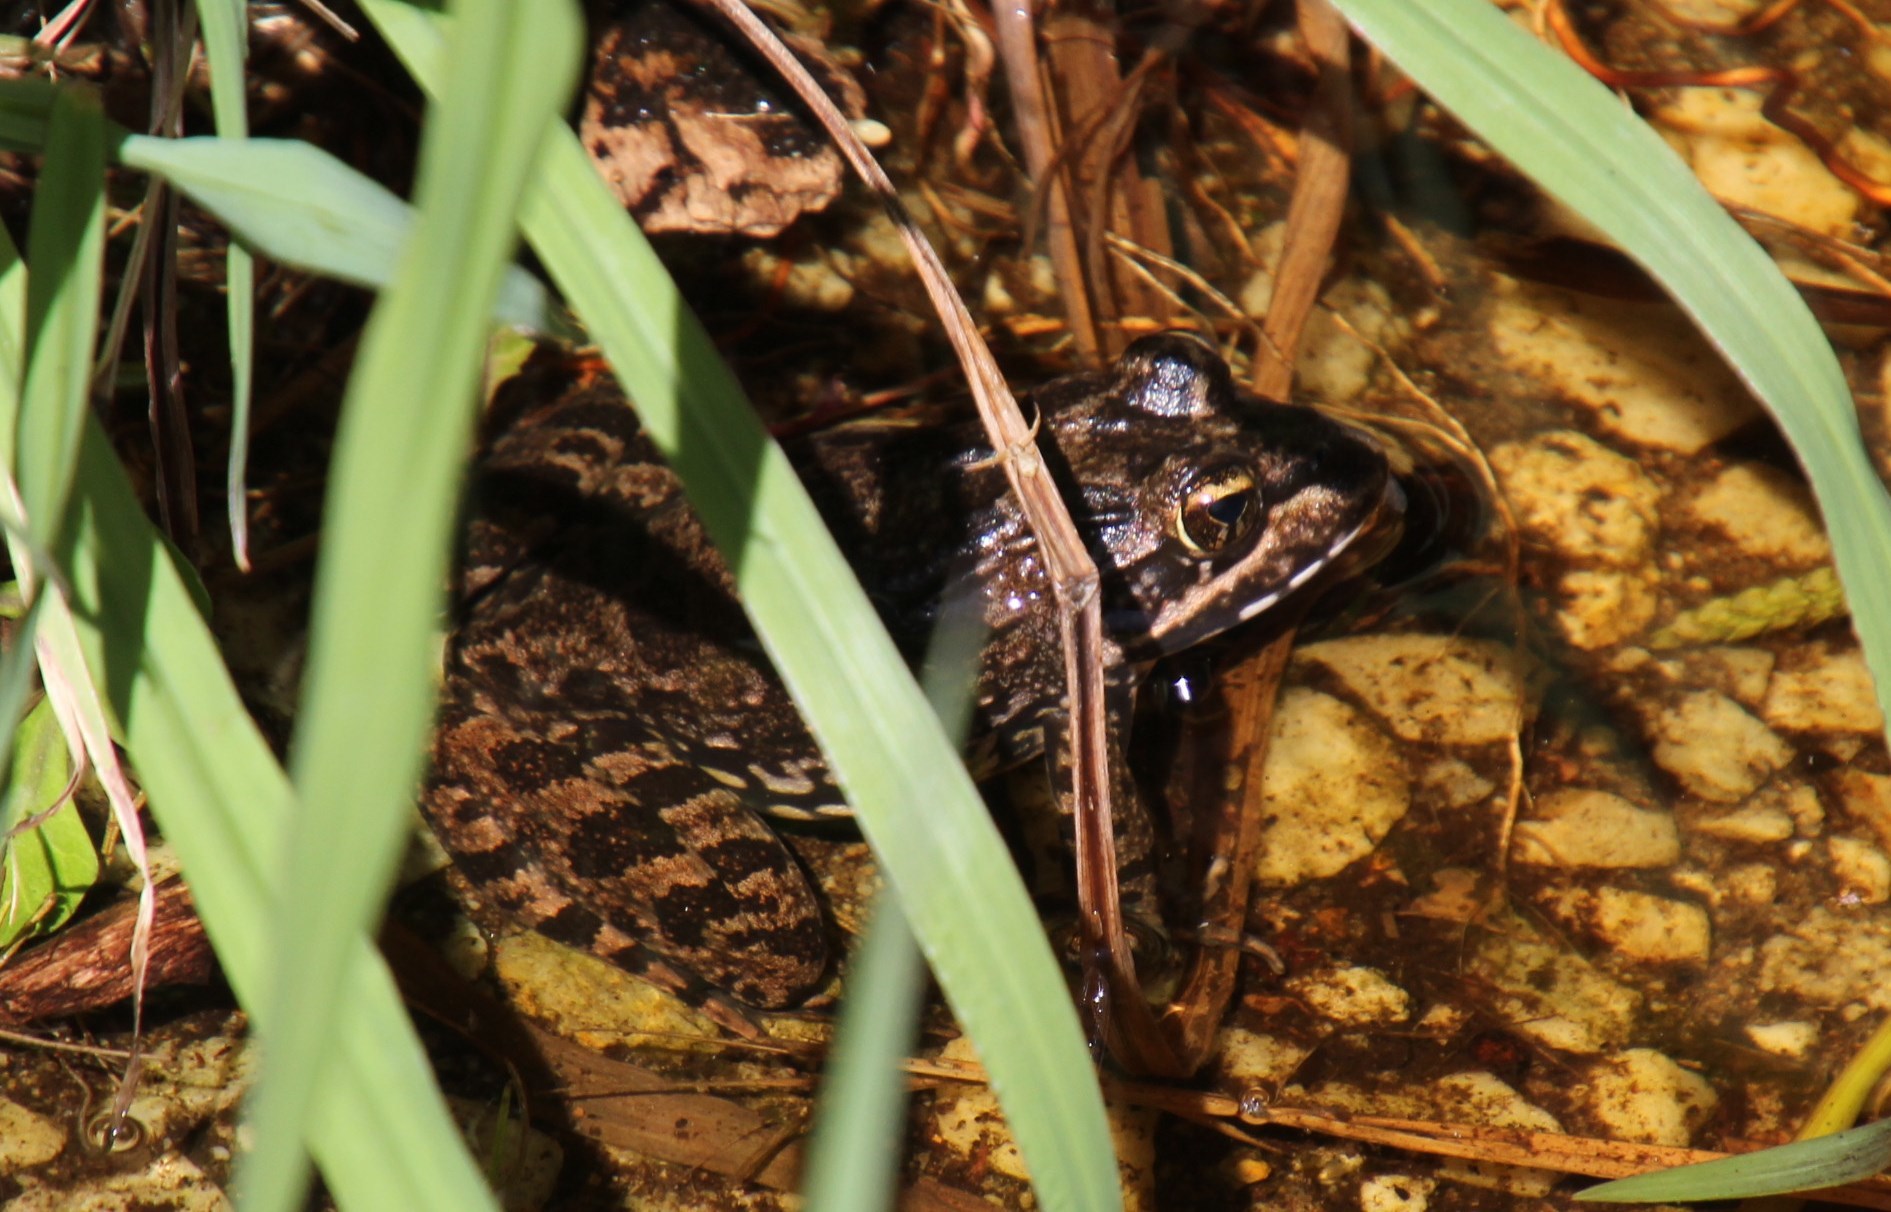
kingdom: Animalia
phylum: Chordata
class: Amphibia
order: Anura
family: Pyxicephalidae
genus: Amietia
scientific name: Amietia fuscigula
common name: Cape rana
